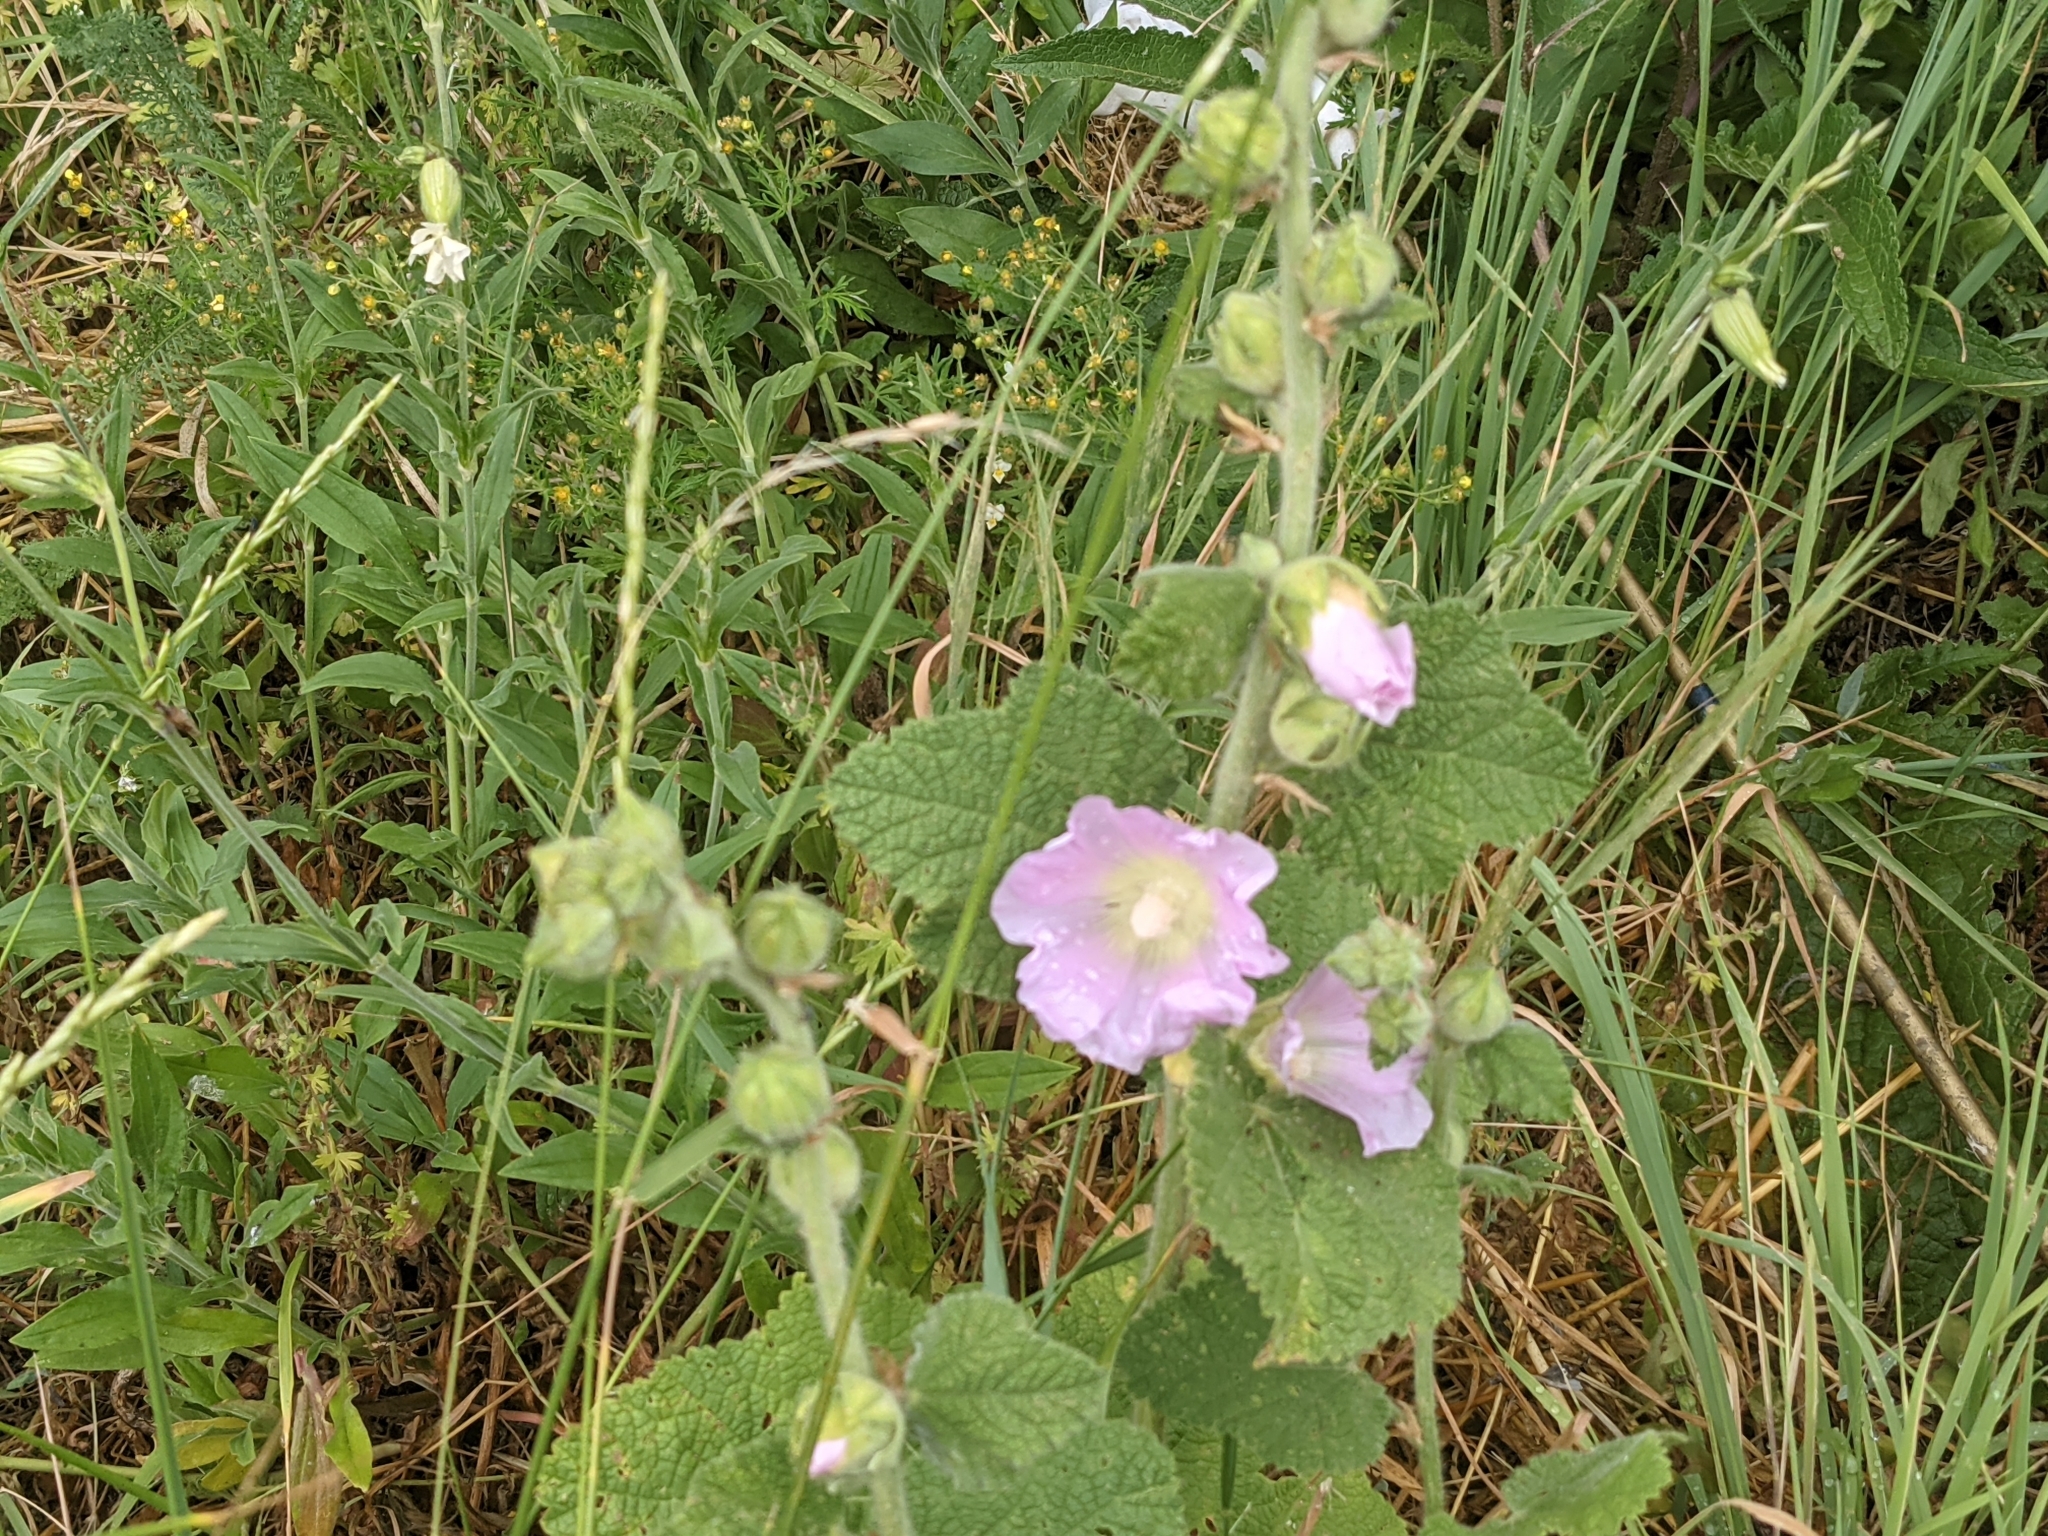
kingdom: Plantae
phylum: Tracheophyta
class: Magnoliopsida
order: Malvales
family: Malvaceae
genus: Alcea
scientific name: Alcea biennis
